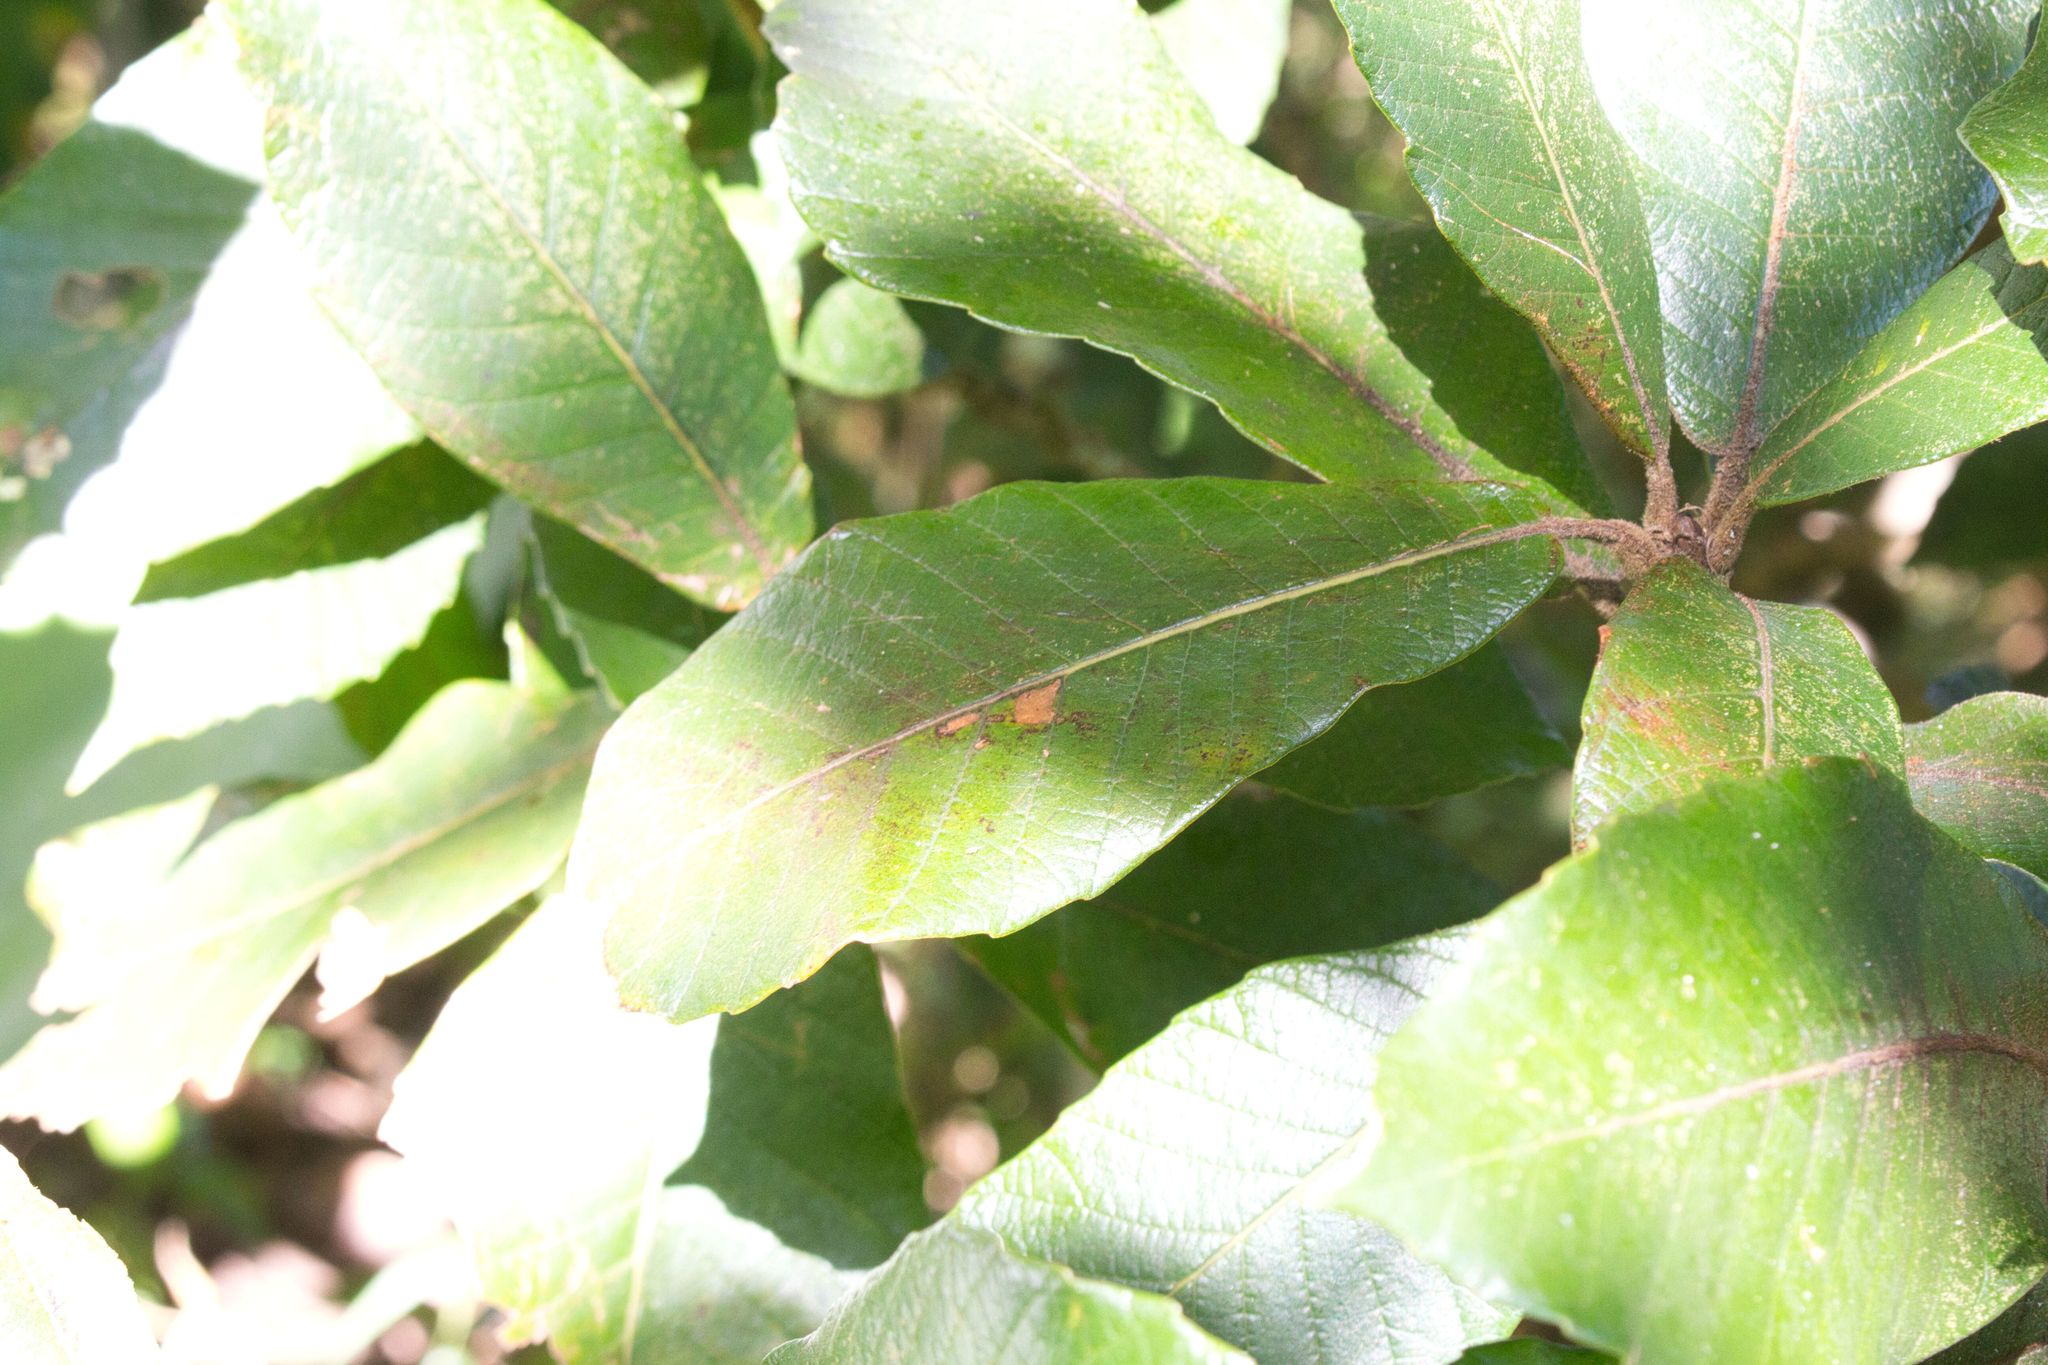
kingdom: Plantae
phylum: Tracheophyta
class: Magnoliopsida
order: Fagales
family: Fagaceae
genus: Quercus
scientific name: Quercus insignis
